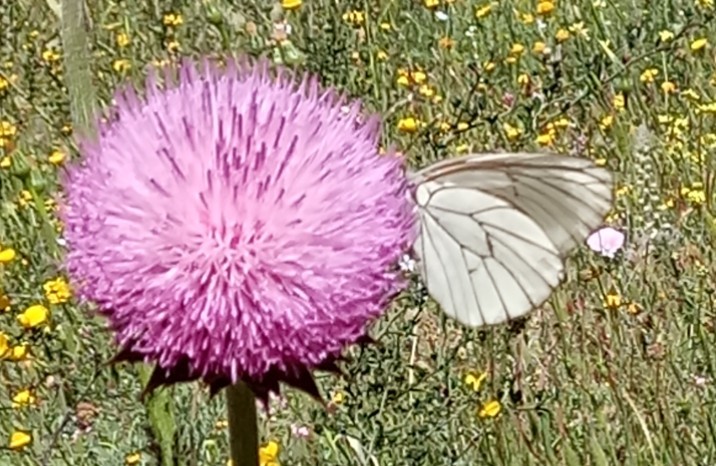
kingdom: Animalia
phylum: Arthropoda
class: Insecta
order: Lepidoptera
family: Pieridae
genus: Aporia
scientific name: Aporia crataegi
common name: Black-veined white
